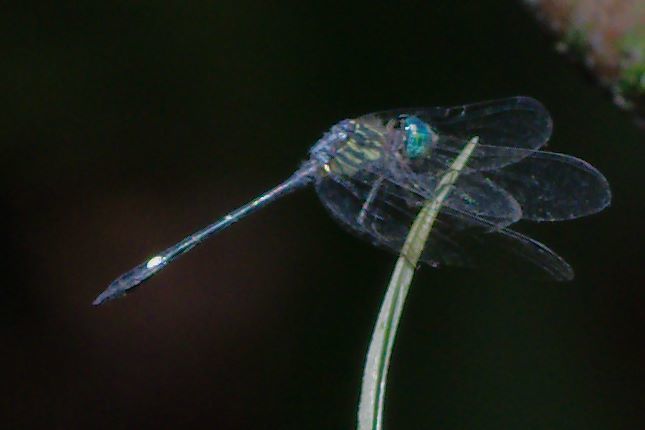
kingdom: Animalia
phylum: Arthropoda
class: Insecta
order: Odonata
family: Libellulidae
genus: Micrathyria
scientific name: Micrathyria didyma
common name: Three-striped dasher
